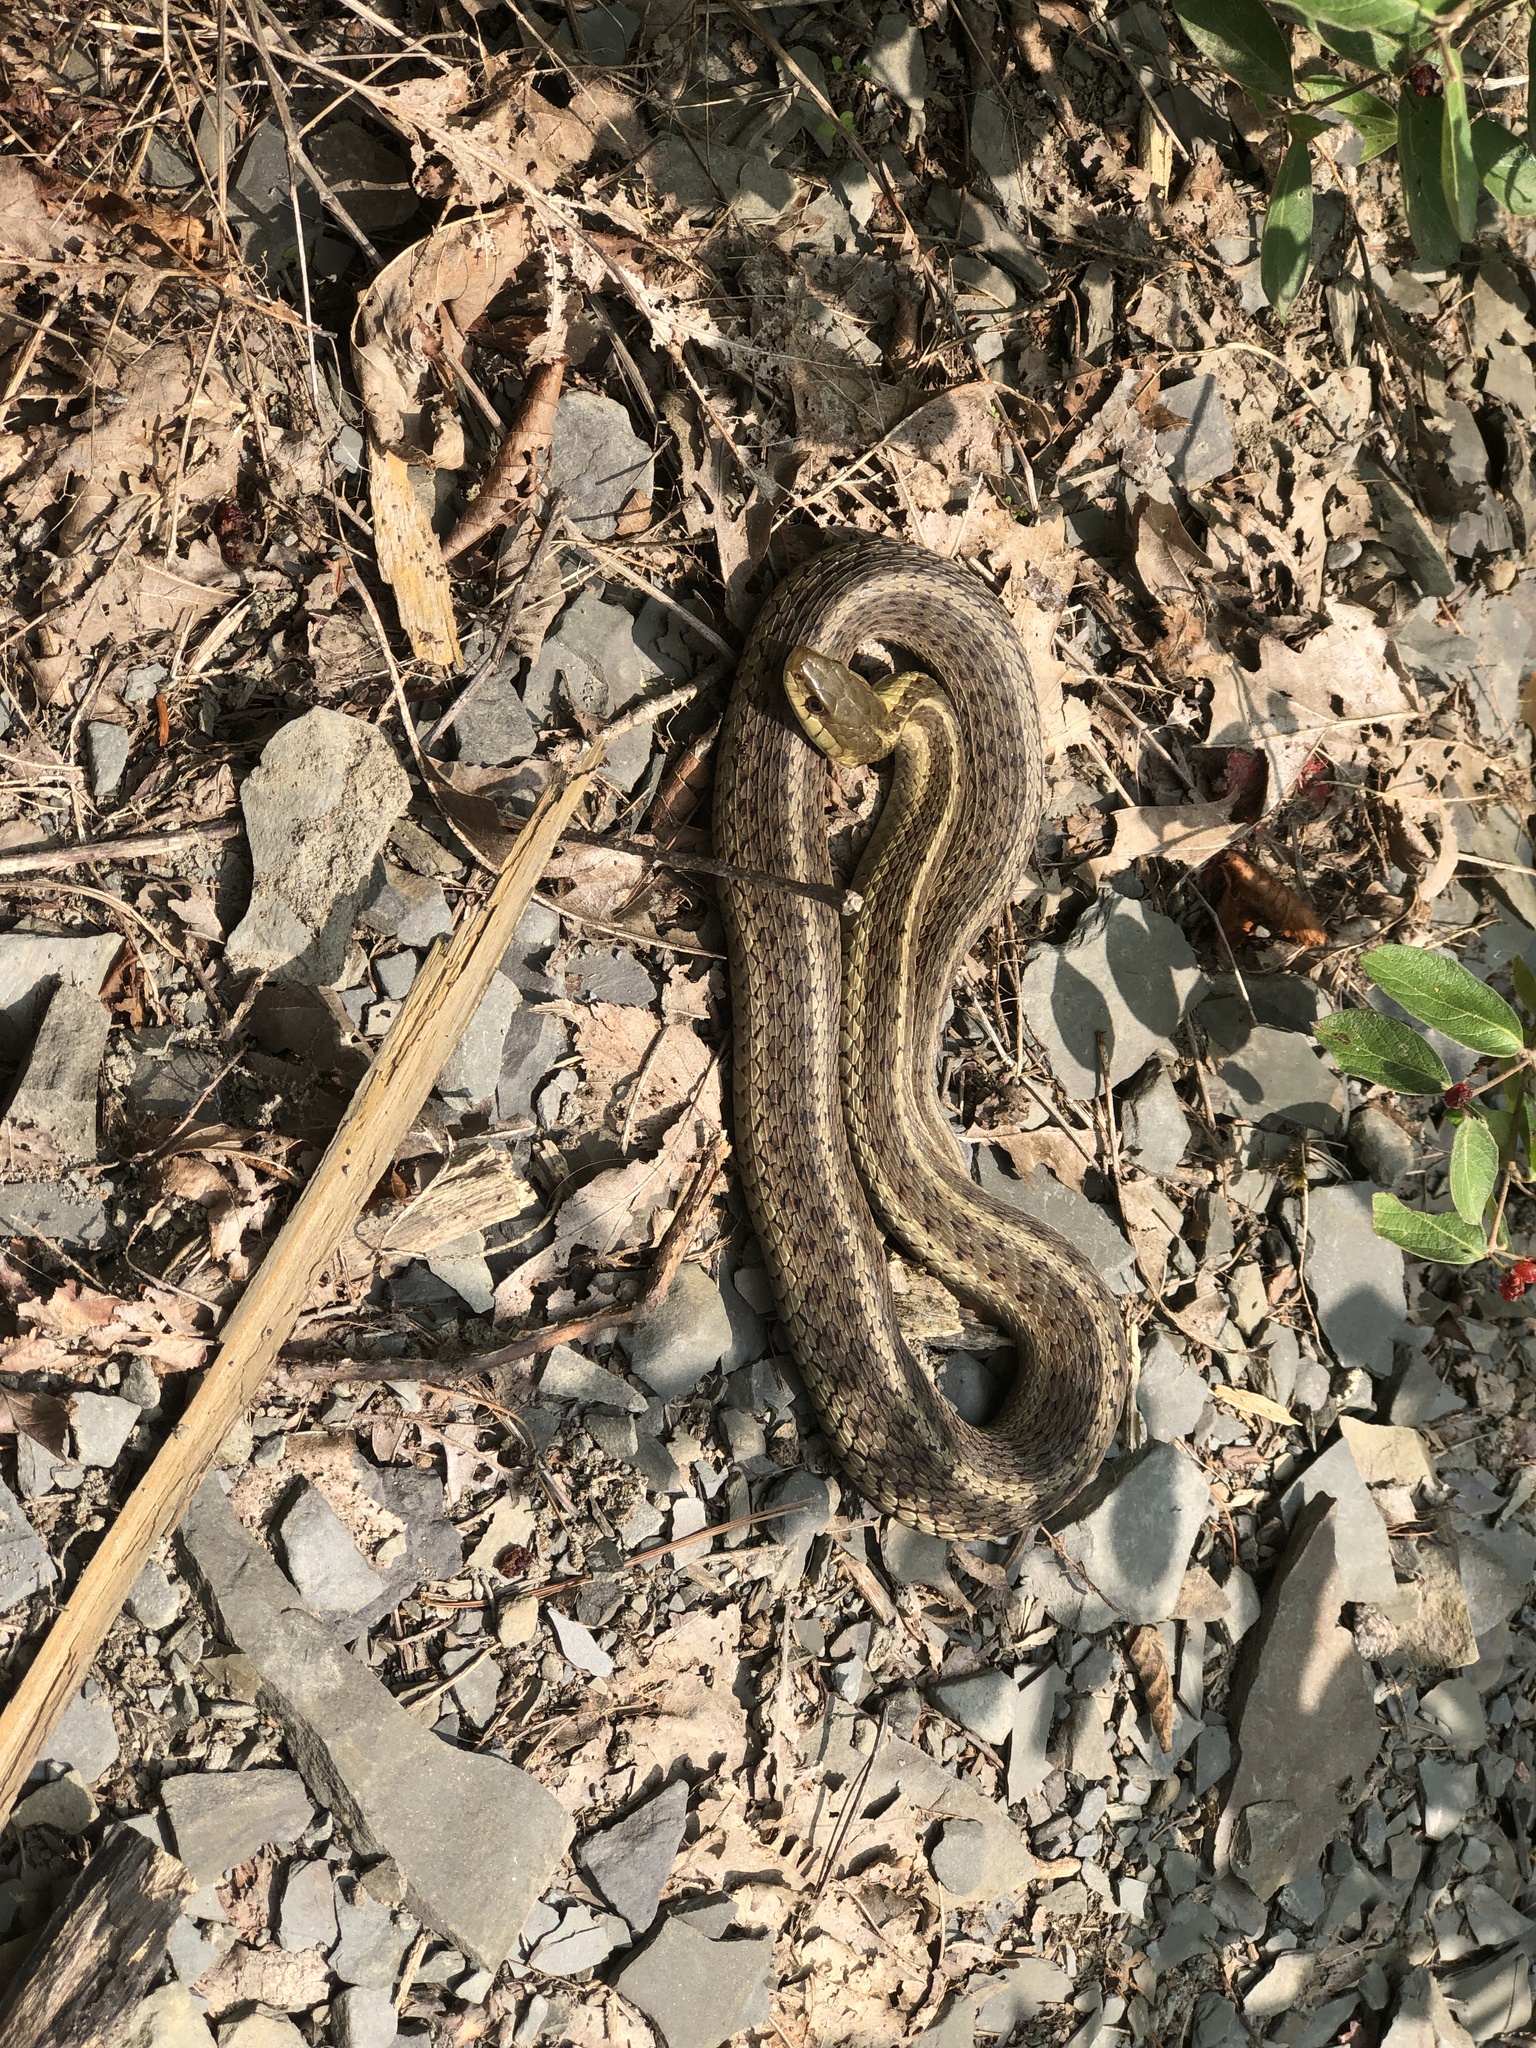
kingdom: Animalia
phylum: Chordata
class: Squamata
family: Colubridae
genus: Thamnophis
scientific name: Thamnophis sirtalis
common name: Common garter snake
